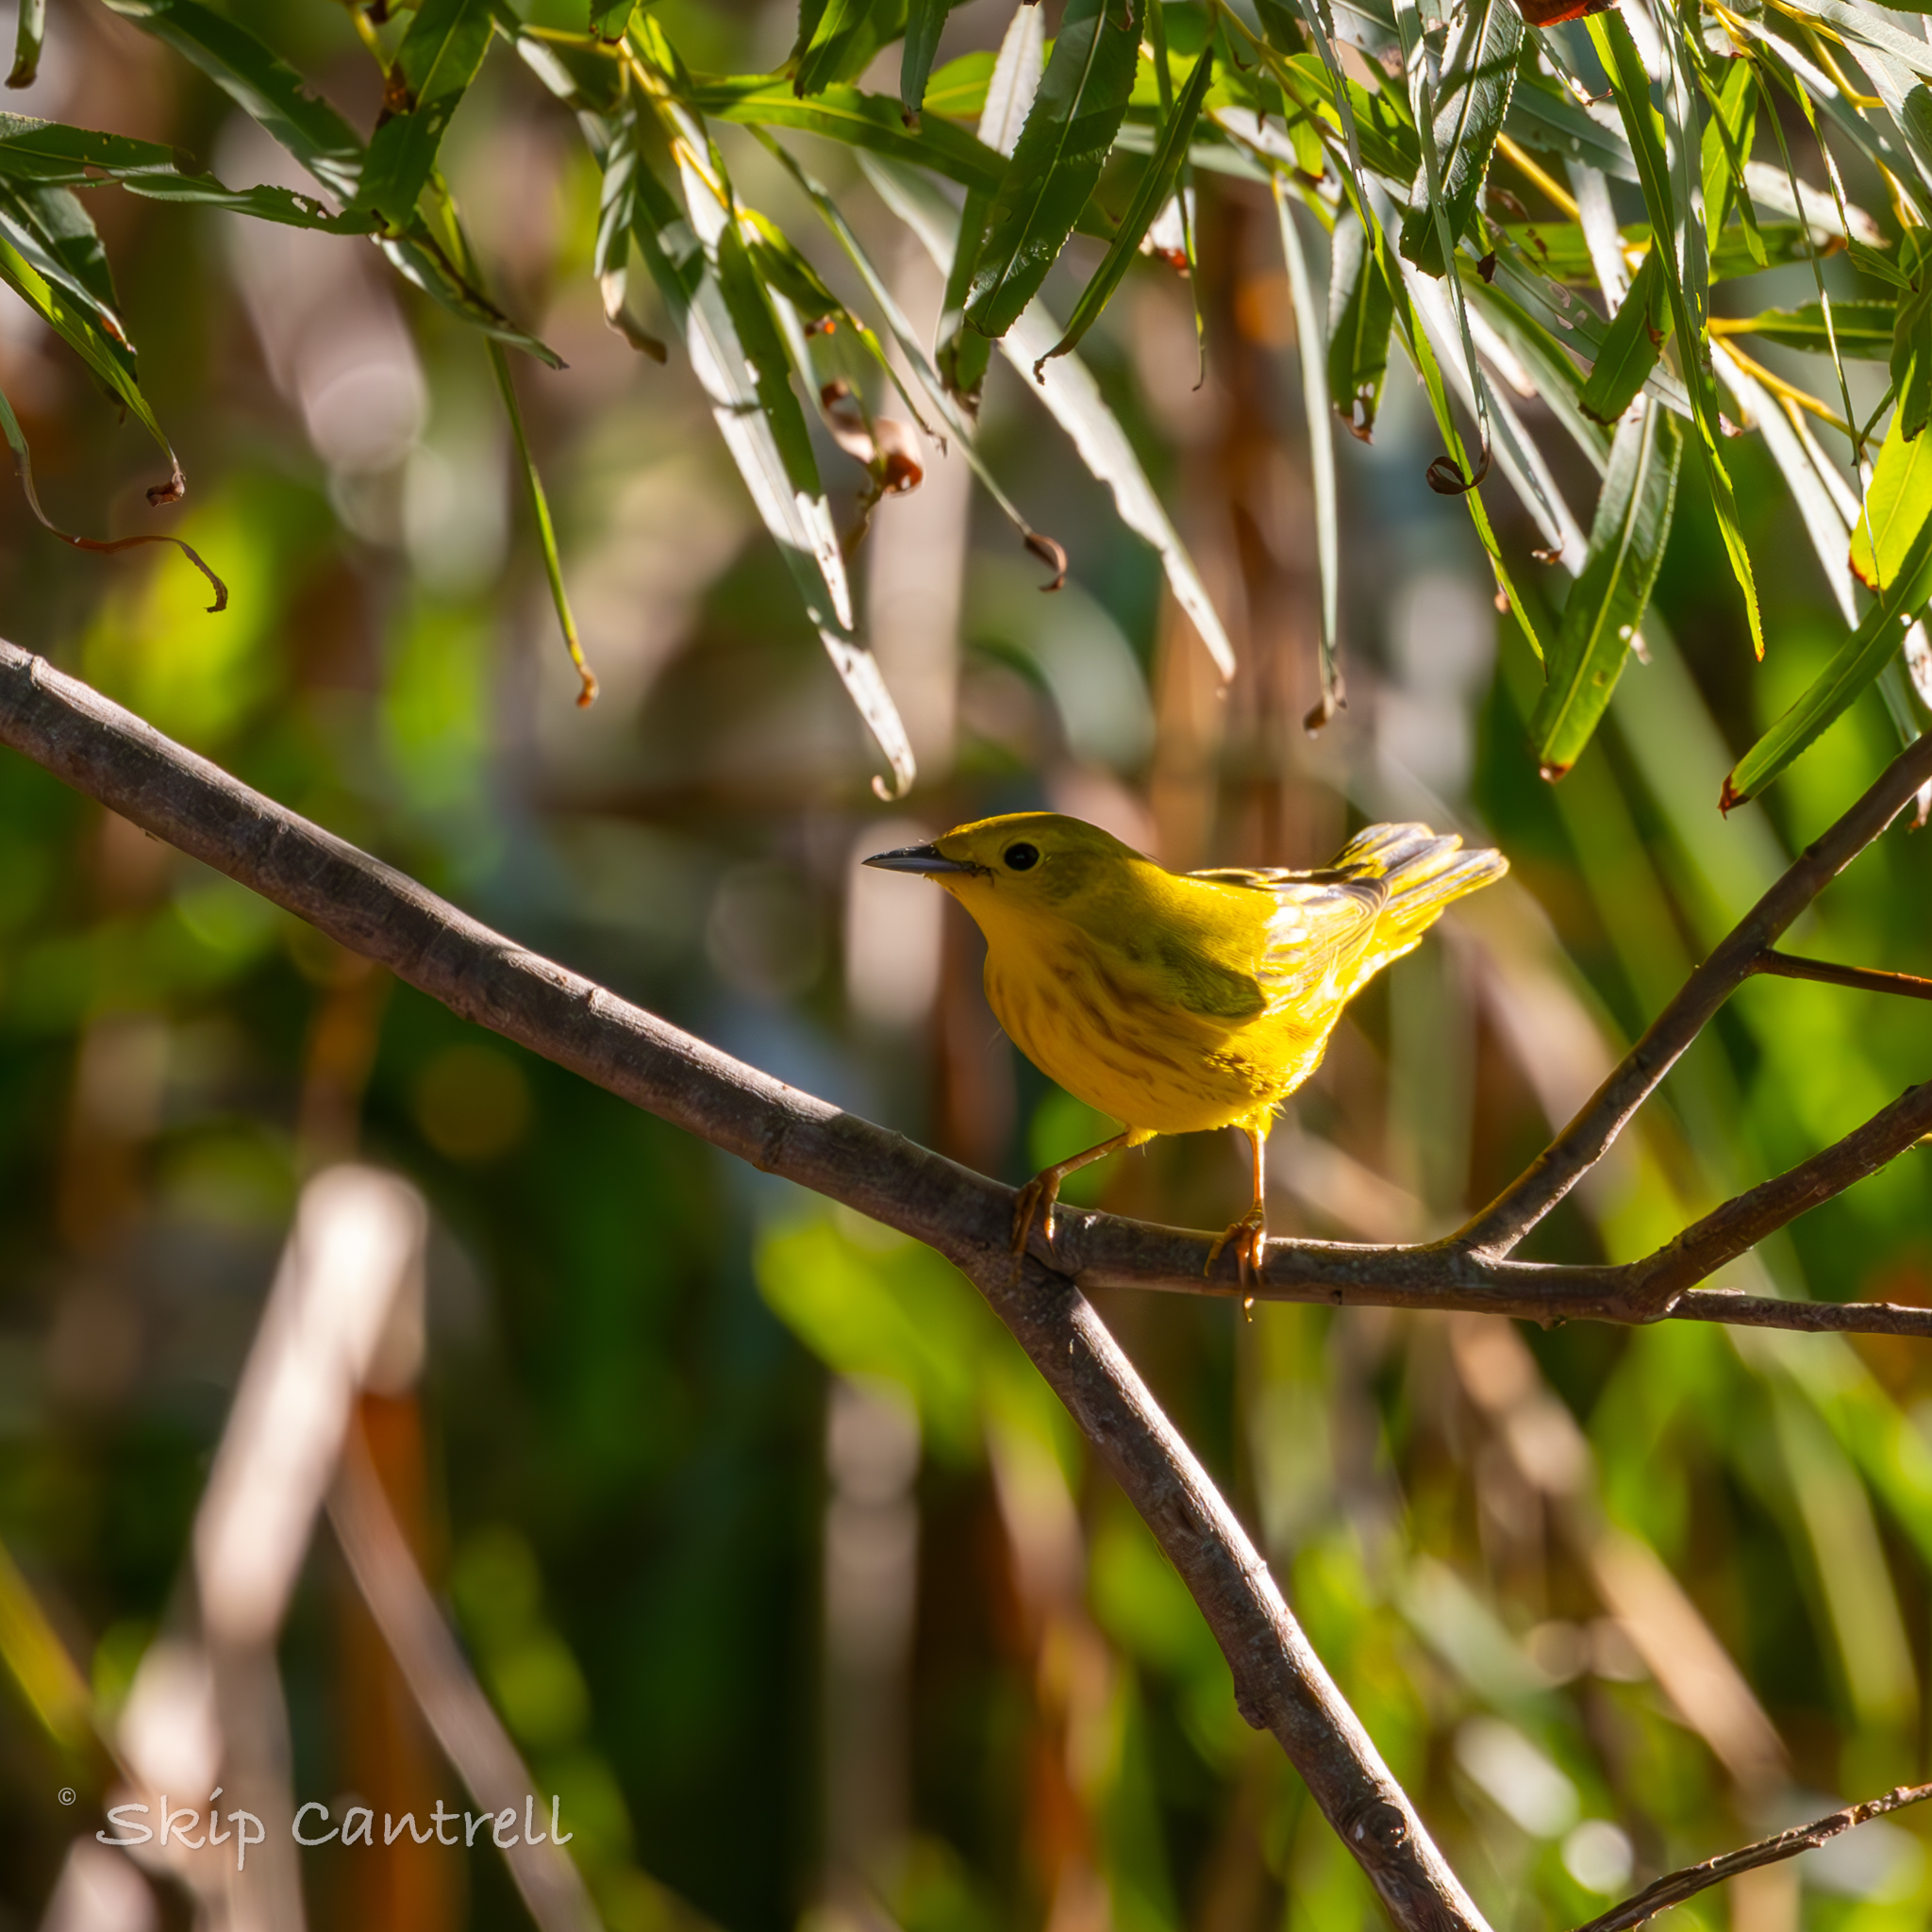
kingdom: Animalia
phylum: Chordata
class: Aves
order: Passeriformes
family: Parulidae
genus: Setophaga
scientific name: Setophaga petechia
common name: Yellow warbler
